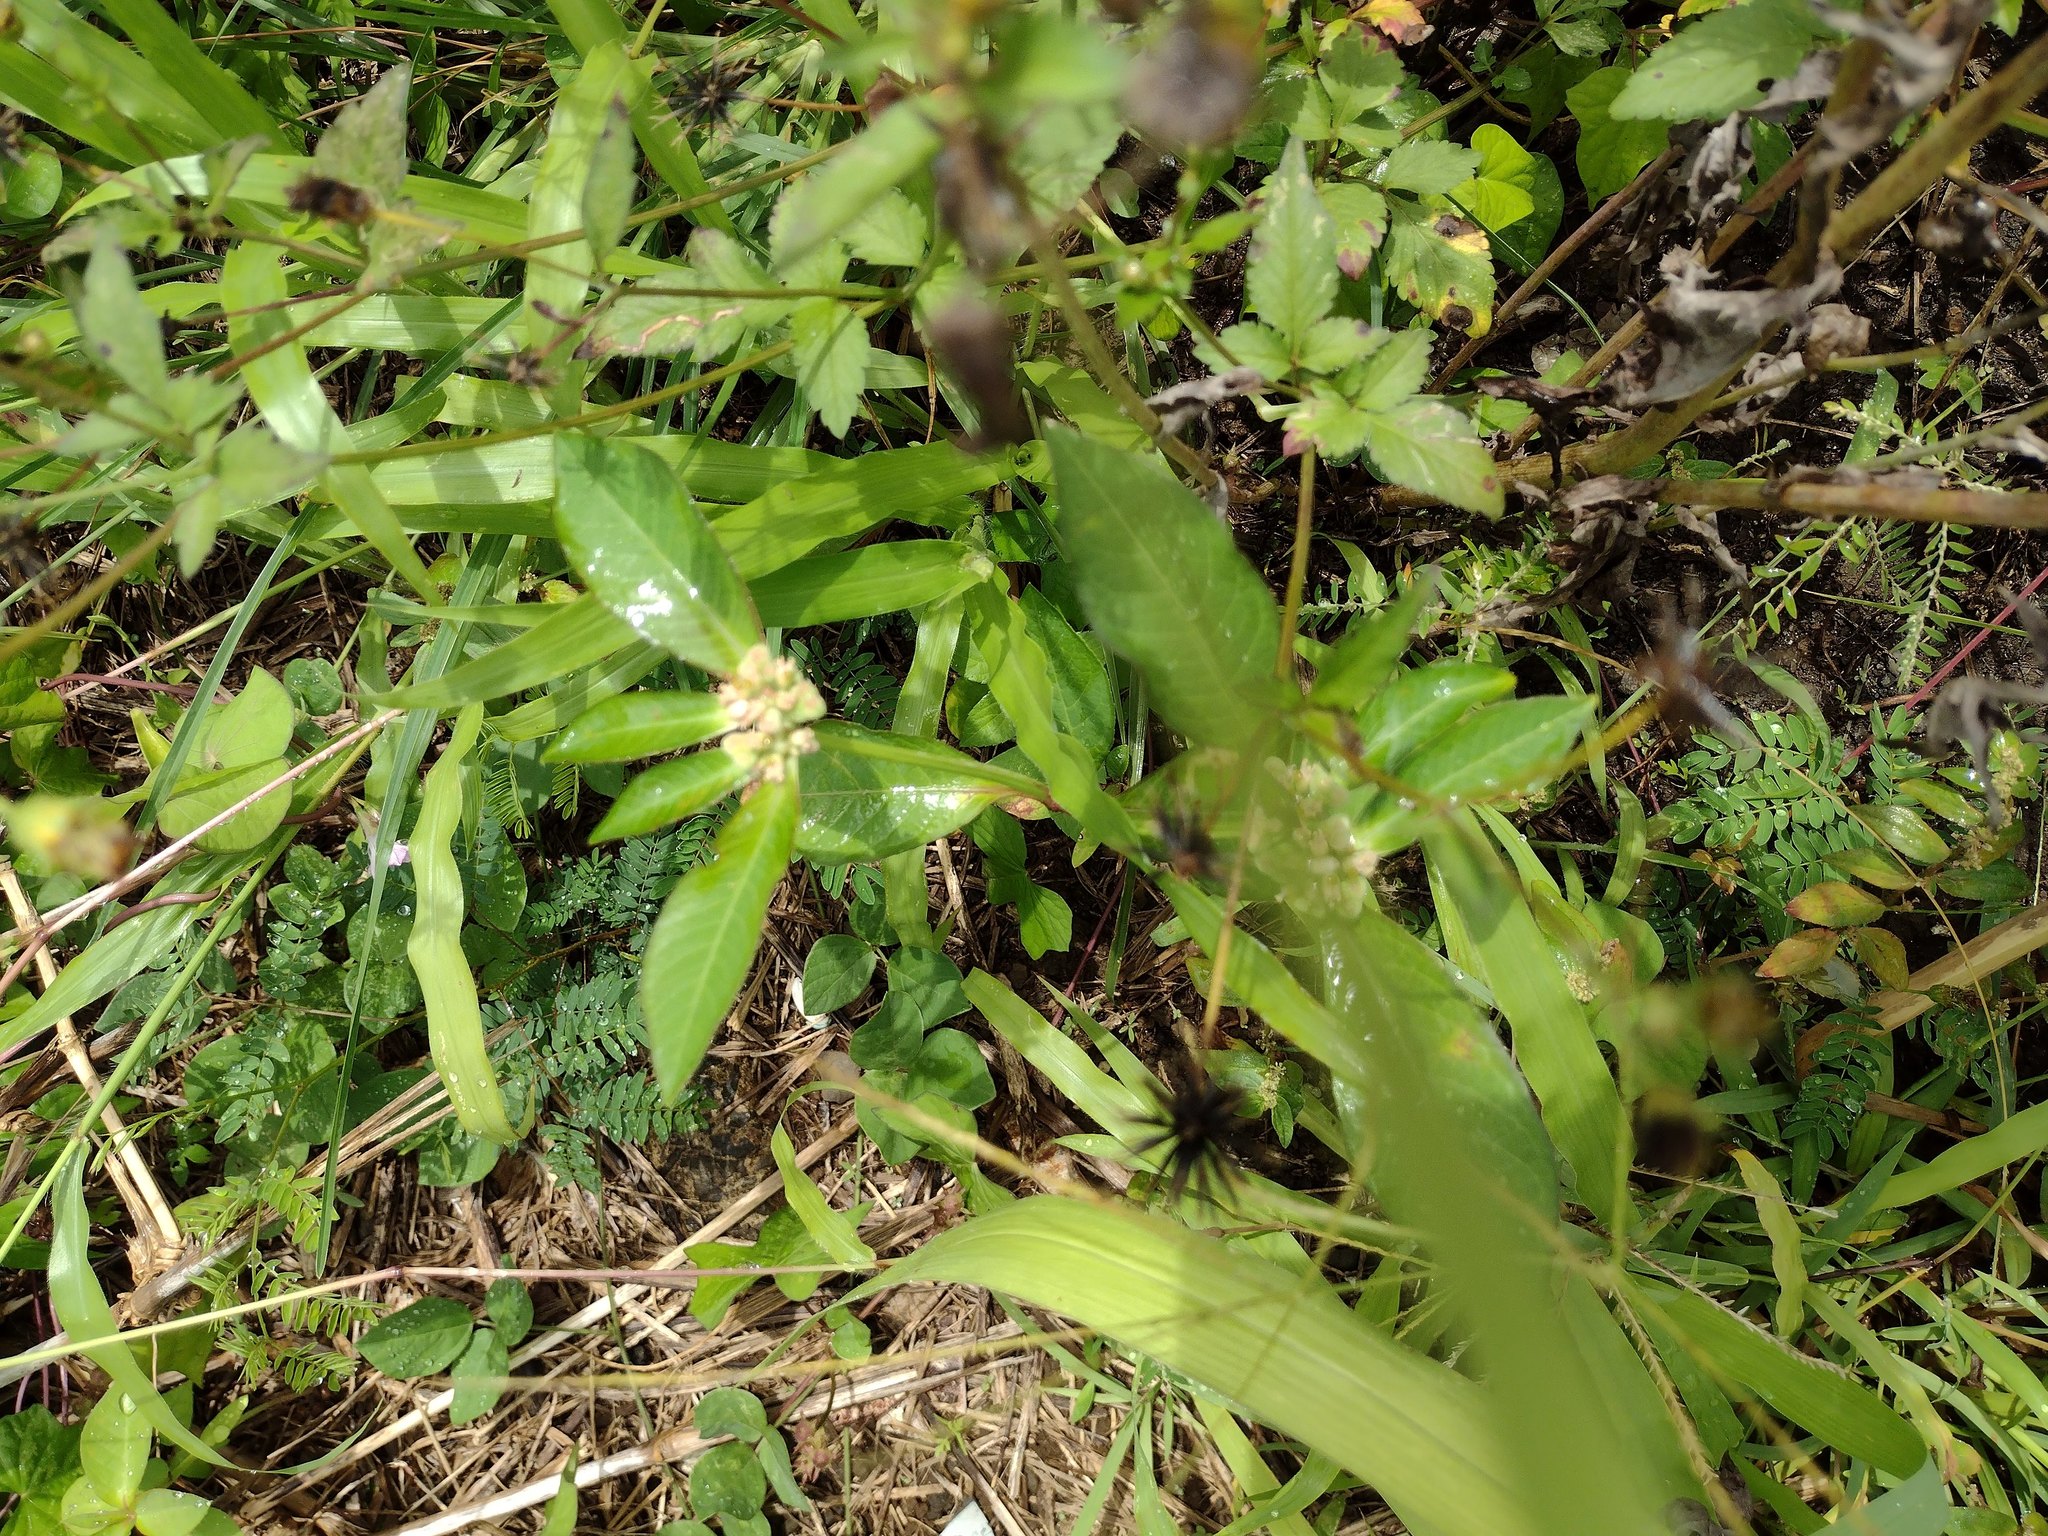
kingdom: Plantae
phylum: Tracheophyta
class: Magnoliopsida
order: Malpighiales
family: Euphorbiaceae
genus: Euphorbia
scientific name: Euphorbia heterophylla
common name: Mexican fireplant
